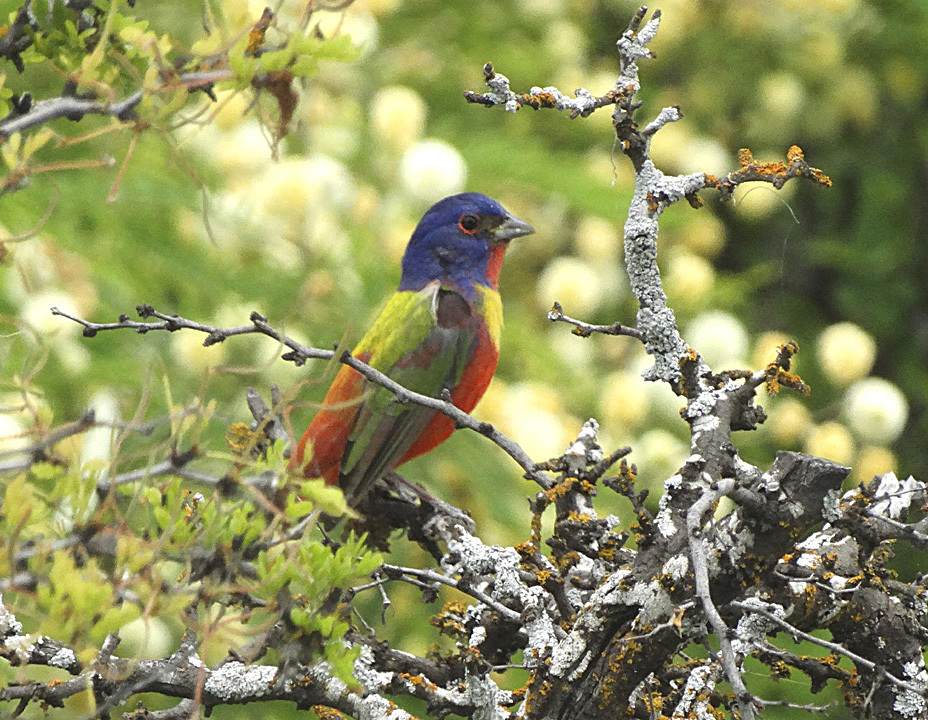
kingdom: Animalia
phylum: Chordata
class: Aves
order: Passeriformes
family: Cardinalidae
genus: Passerina
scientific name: Passerina ciris
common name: Painted bunting
